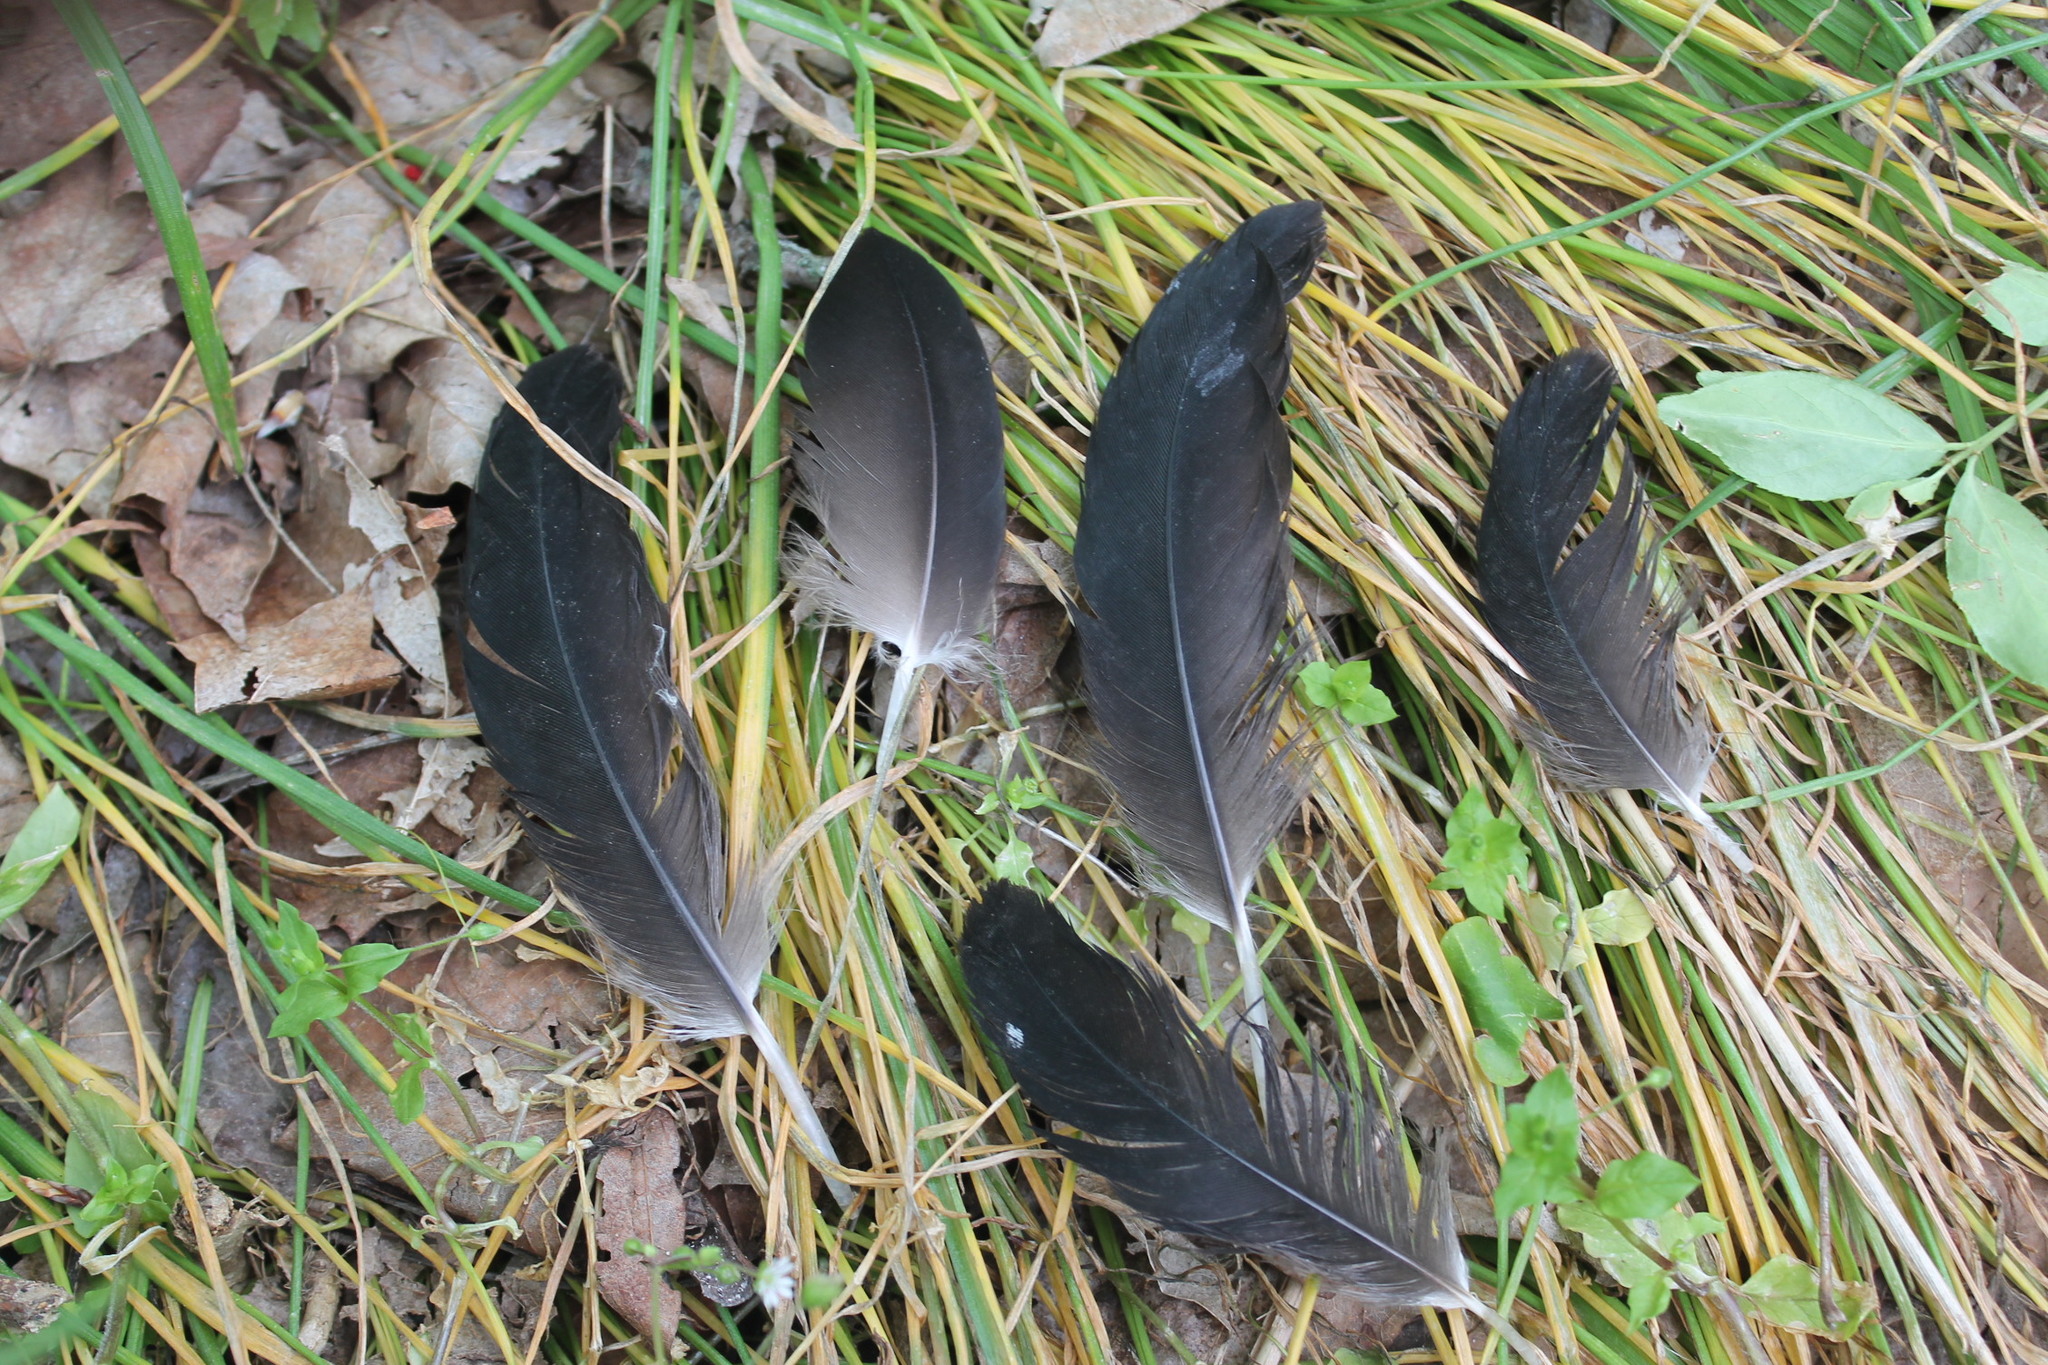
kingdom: Animalia
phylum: Chordata
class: Aves
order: Accipitriformes
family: Cathartidae
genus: Coragyps
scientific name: Coragyps atratus
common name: Black vulture
